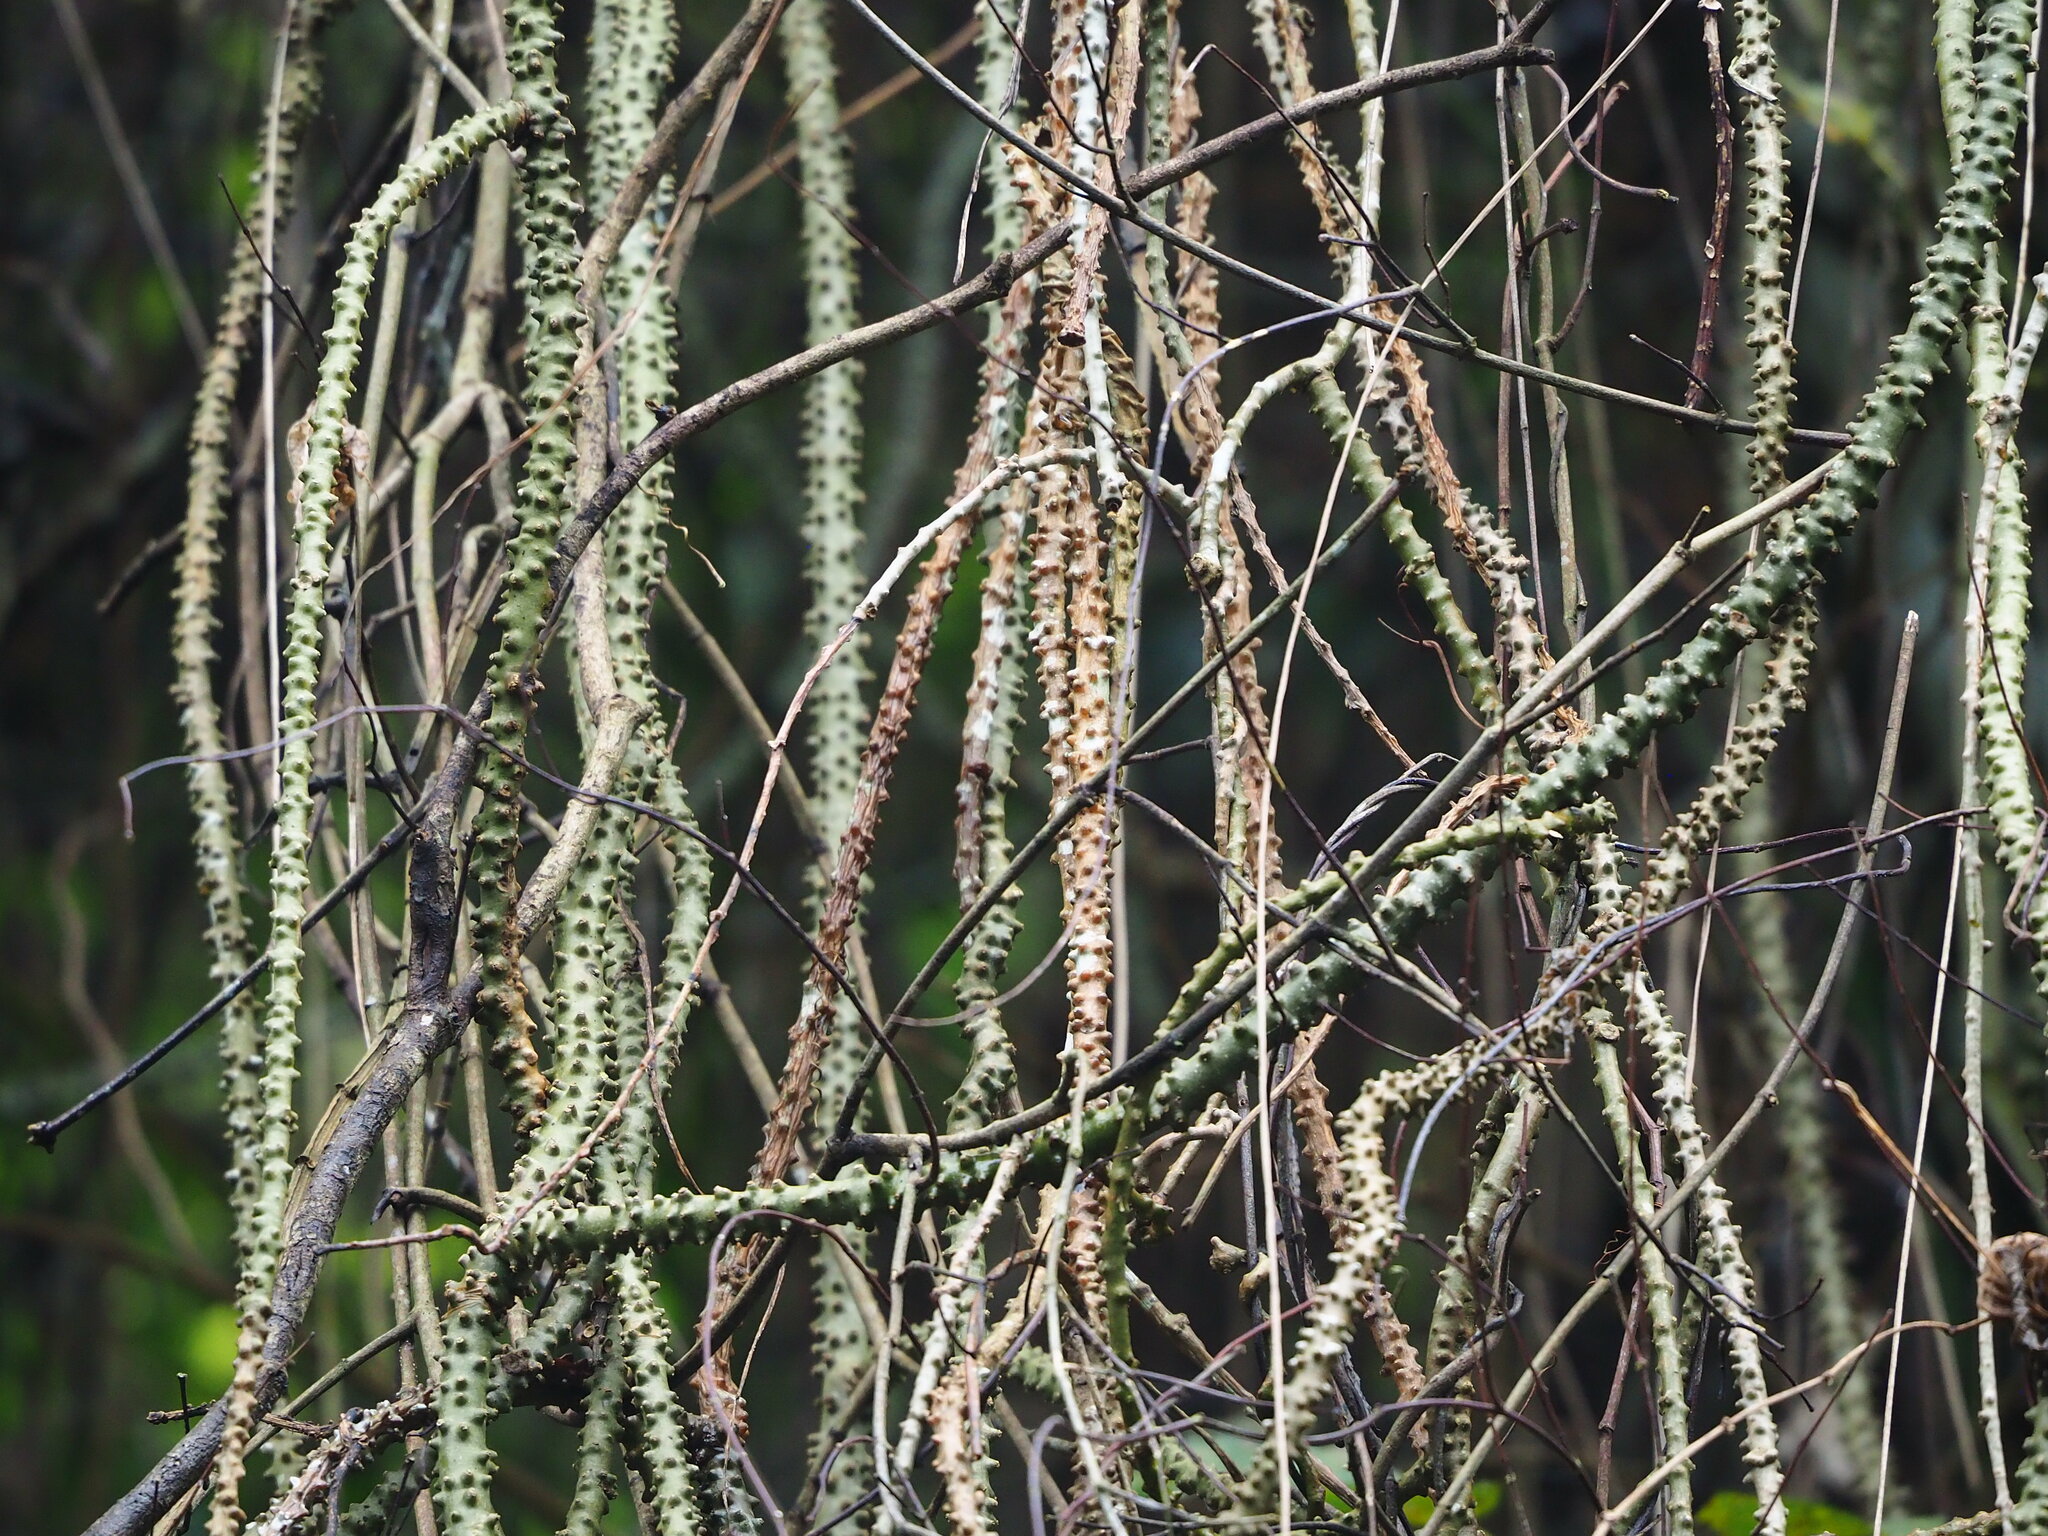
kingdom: Plantae
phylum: Tracheophyta
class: Magnoliopsida
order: Ranunculales
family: Menispermaceae
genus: Tinospora
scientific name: Tinospora crispa
